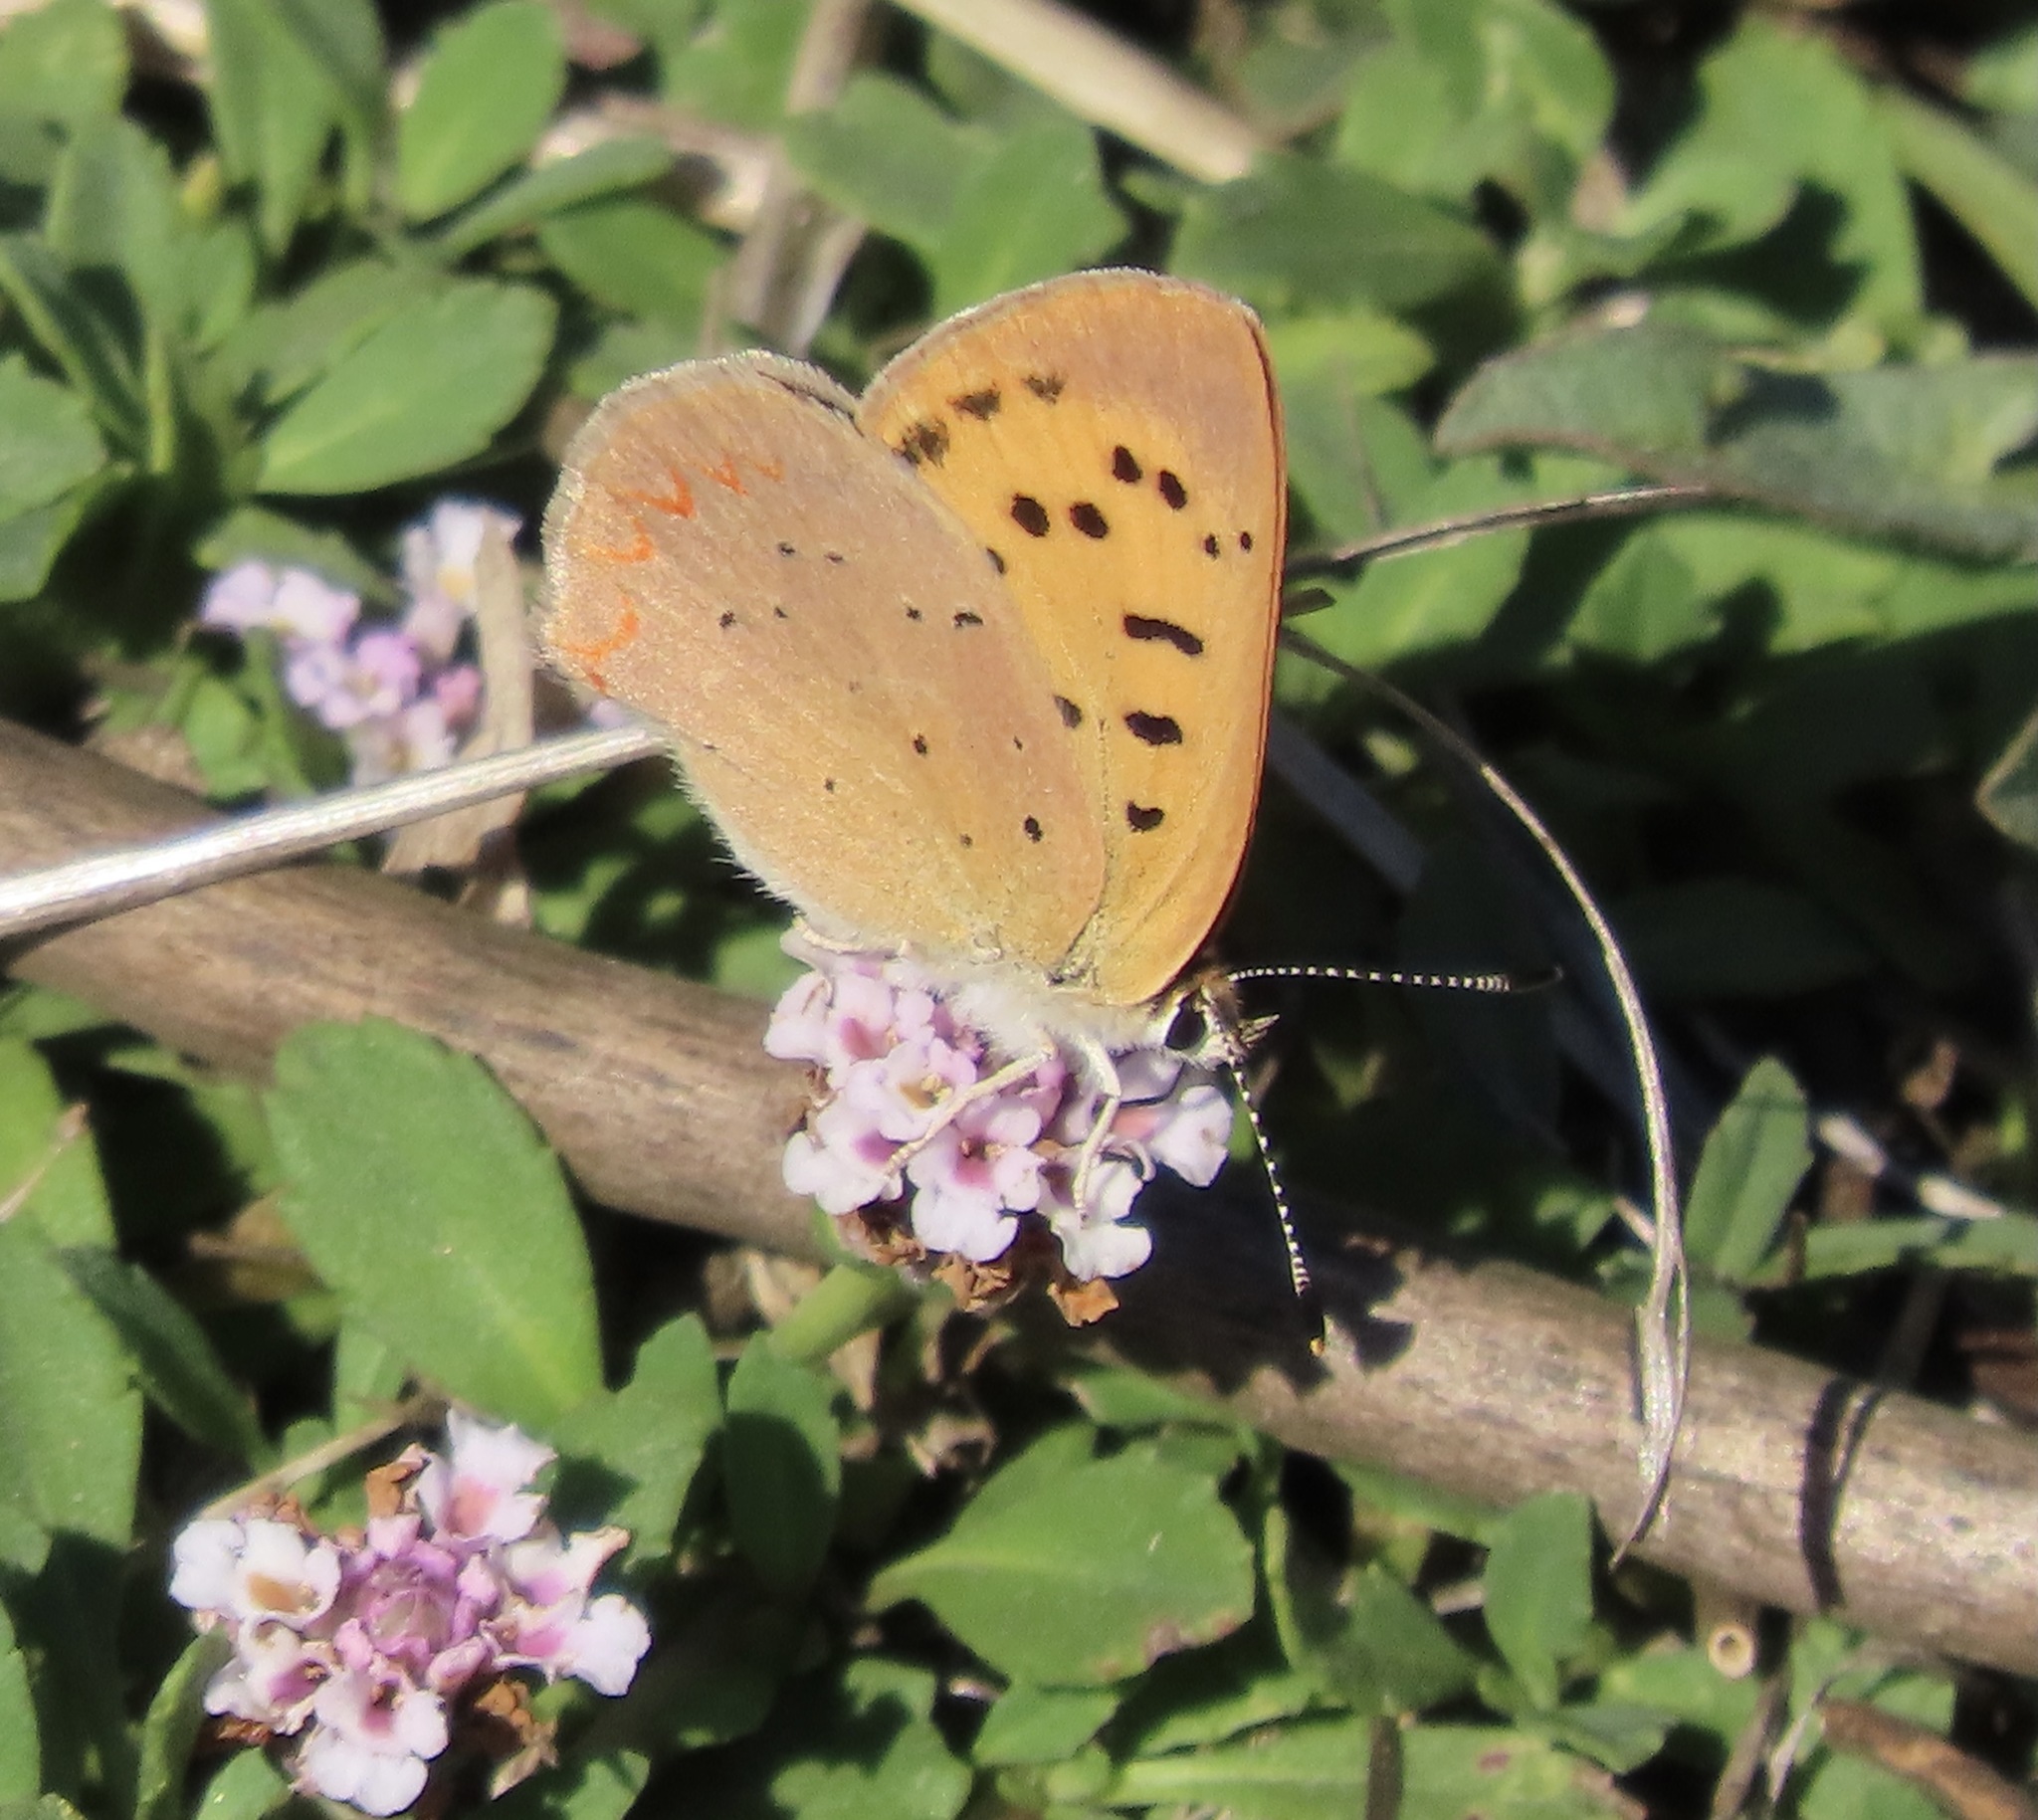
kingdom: Animalia
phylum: Arthropoda
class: Insecta
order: Lepidoptera
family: Lycaenidae
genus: Tharsalea
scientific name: Tharsalea helloides
